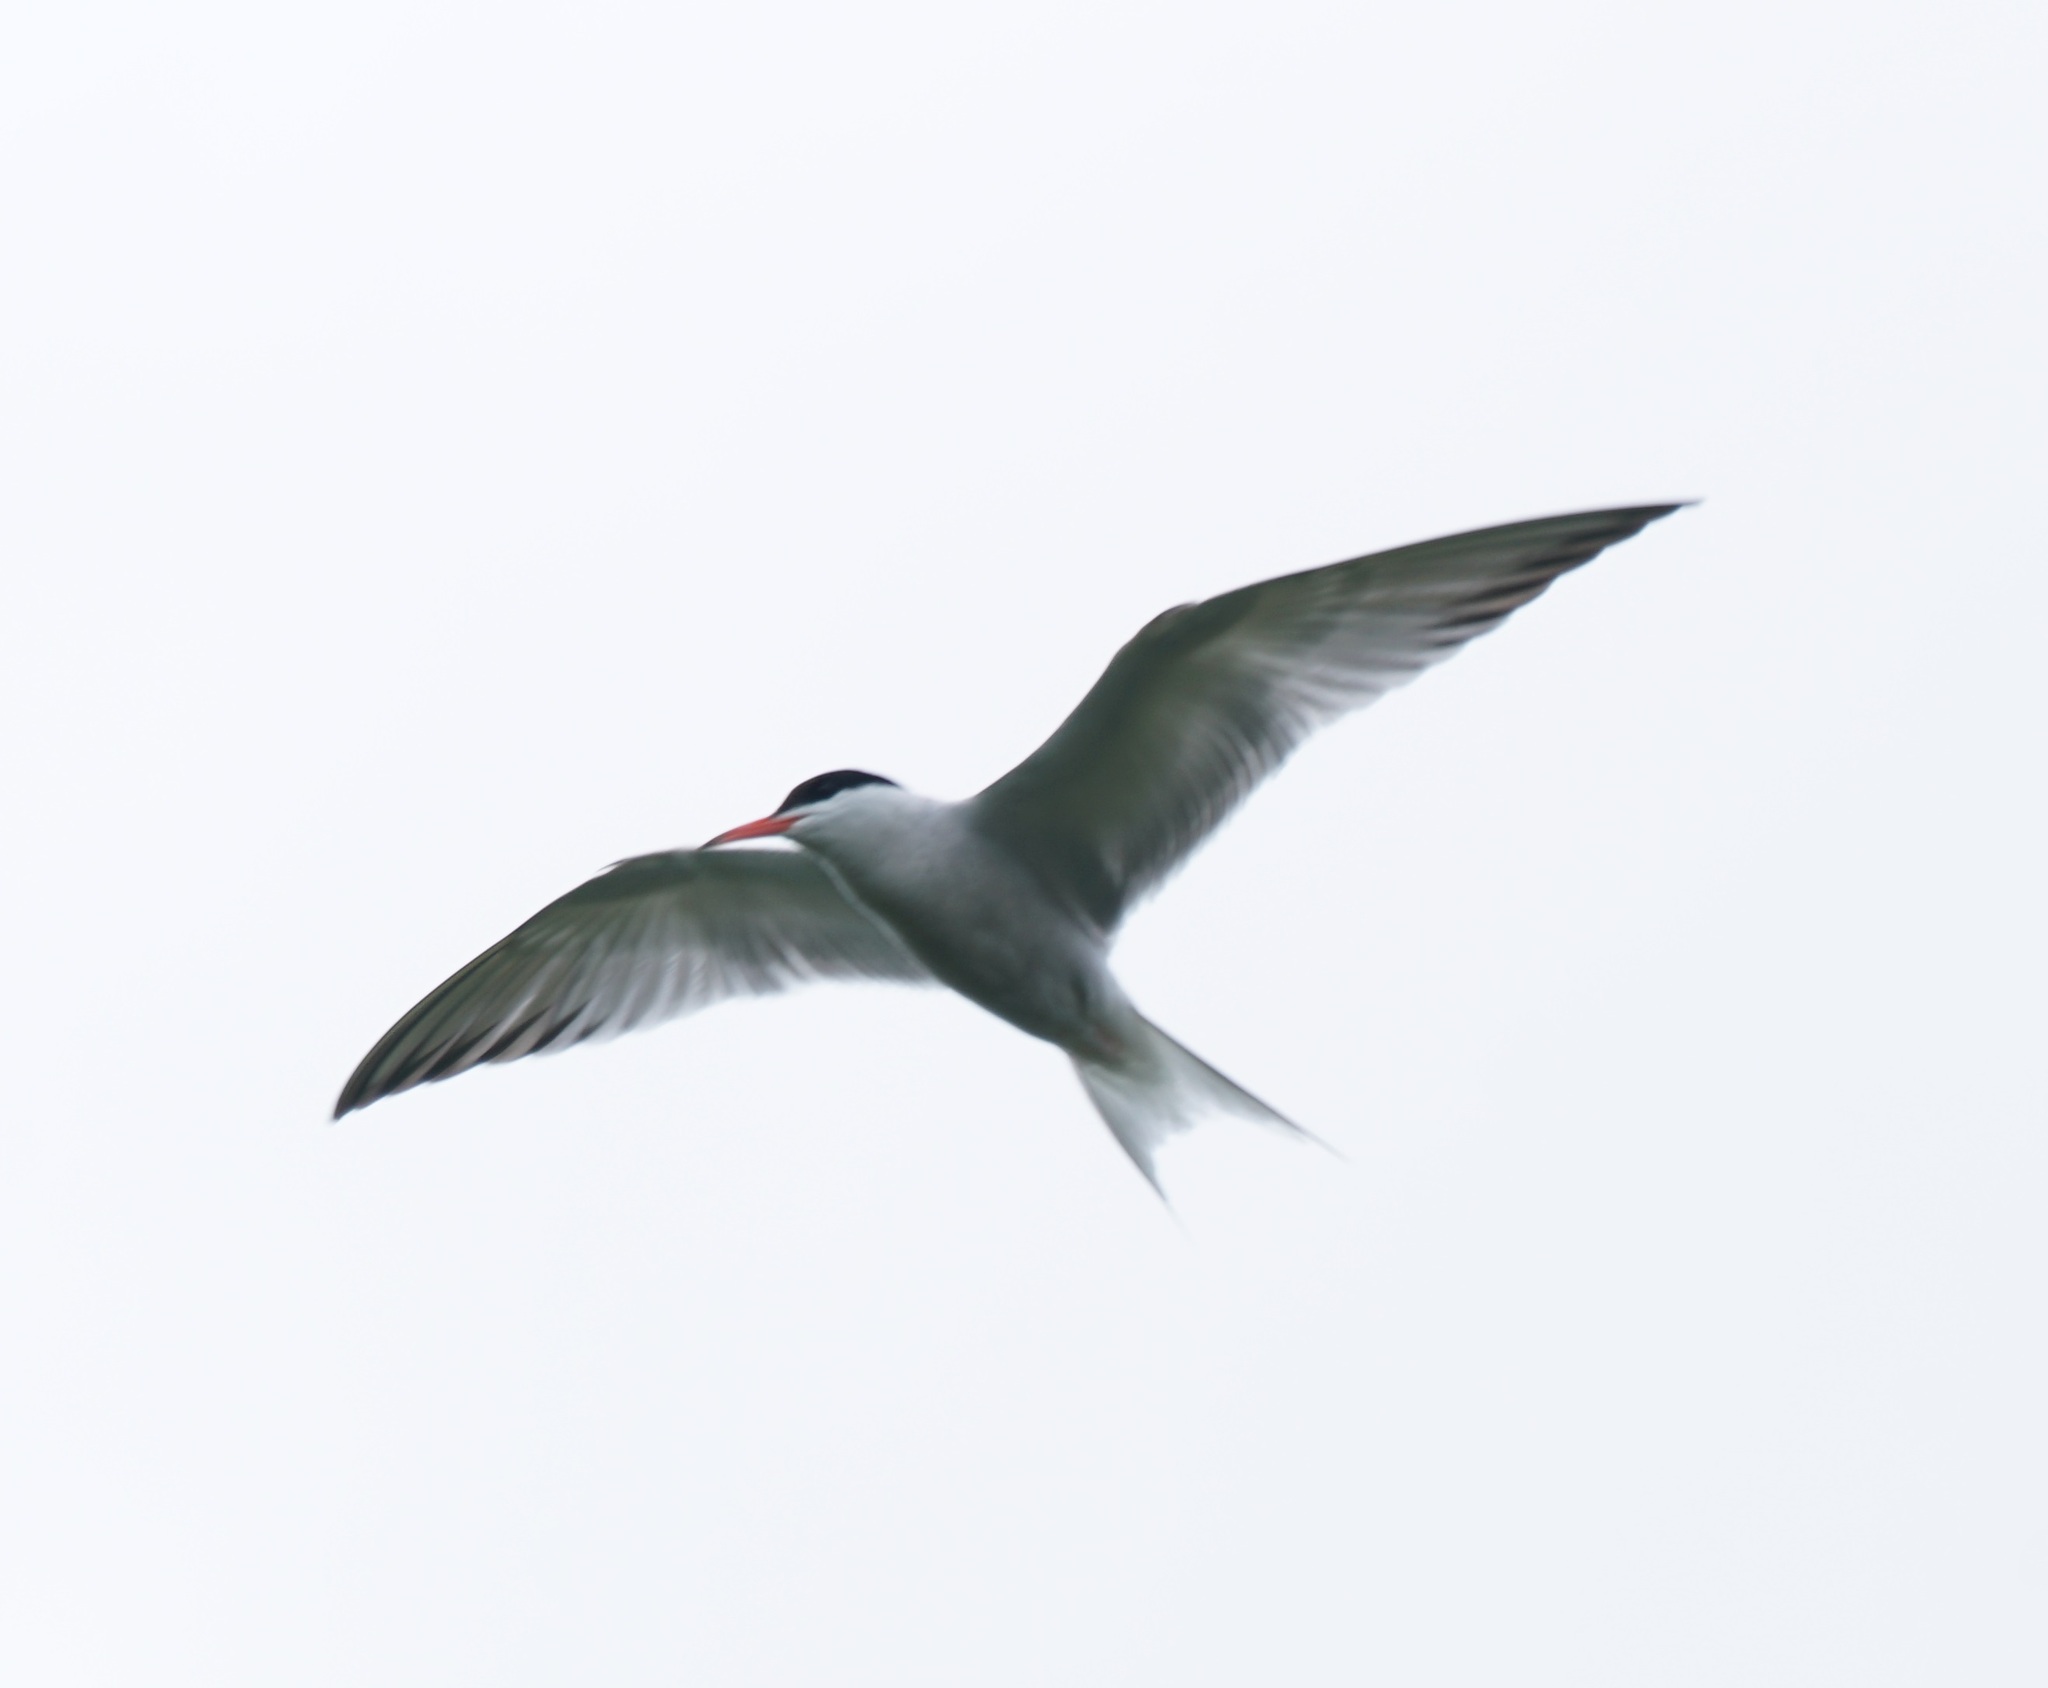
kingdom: Animalia
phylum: Chordata
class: Aves
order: Charadriiformes
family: Laridae
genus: Sterna
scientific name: Sterna hirundo
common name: Common tern
